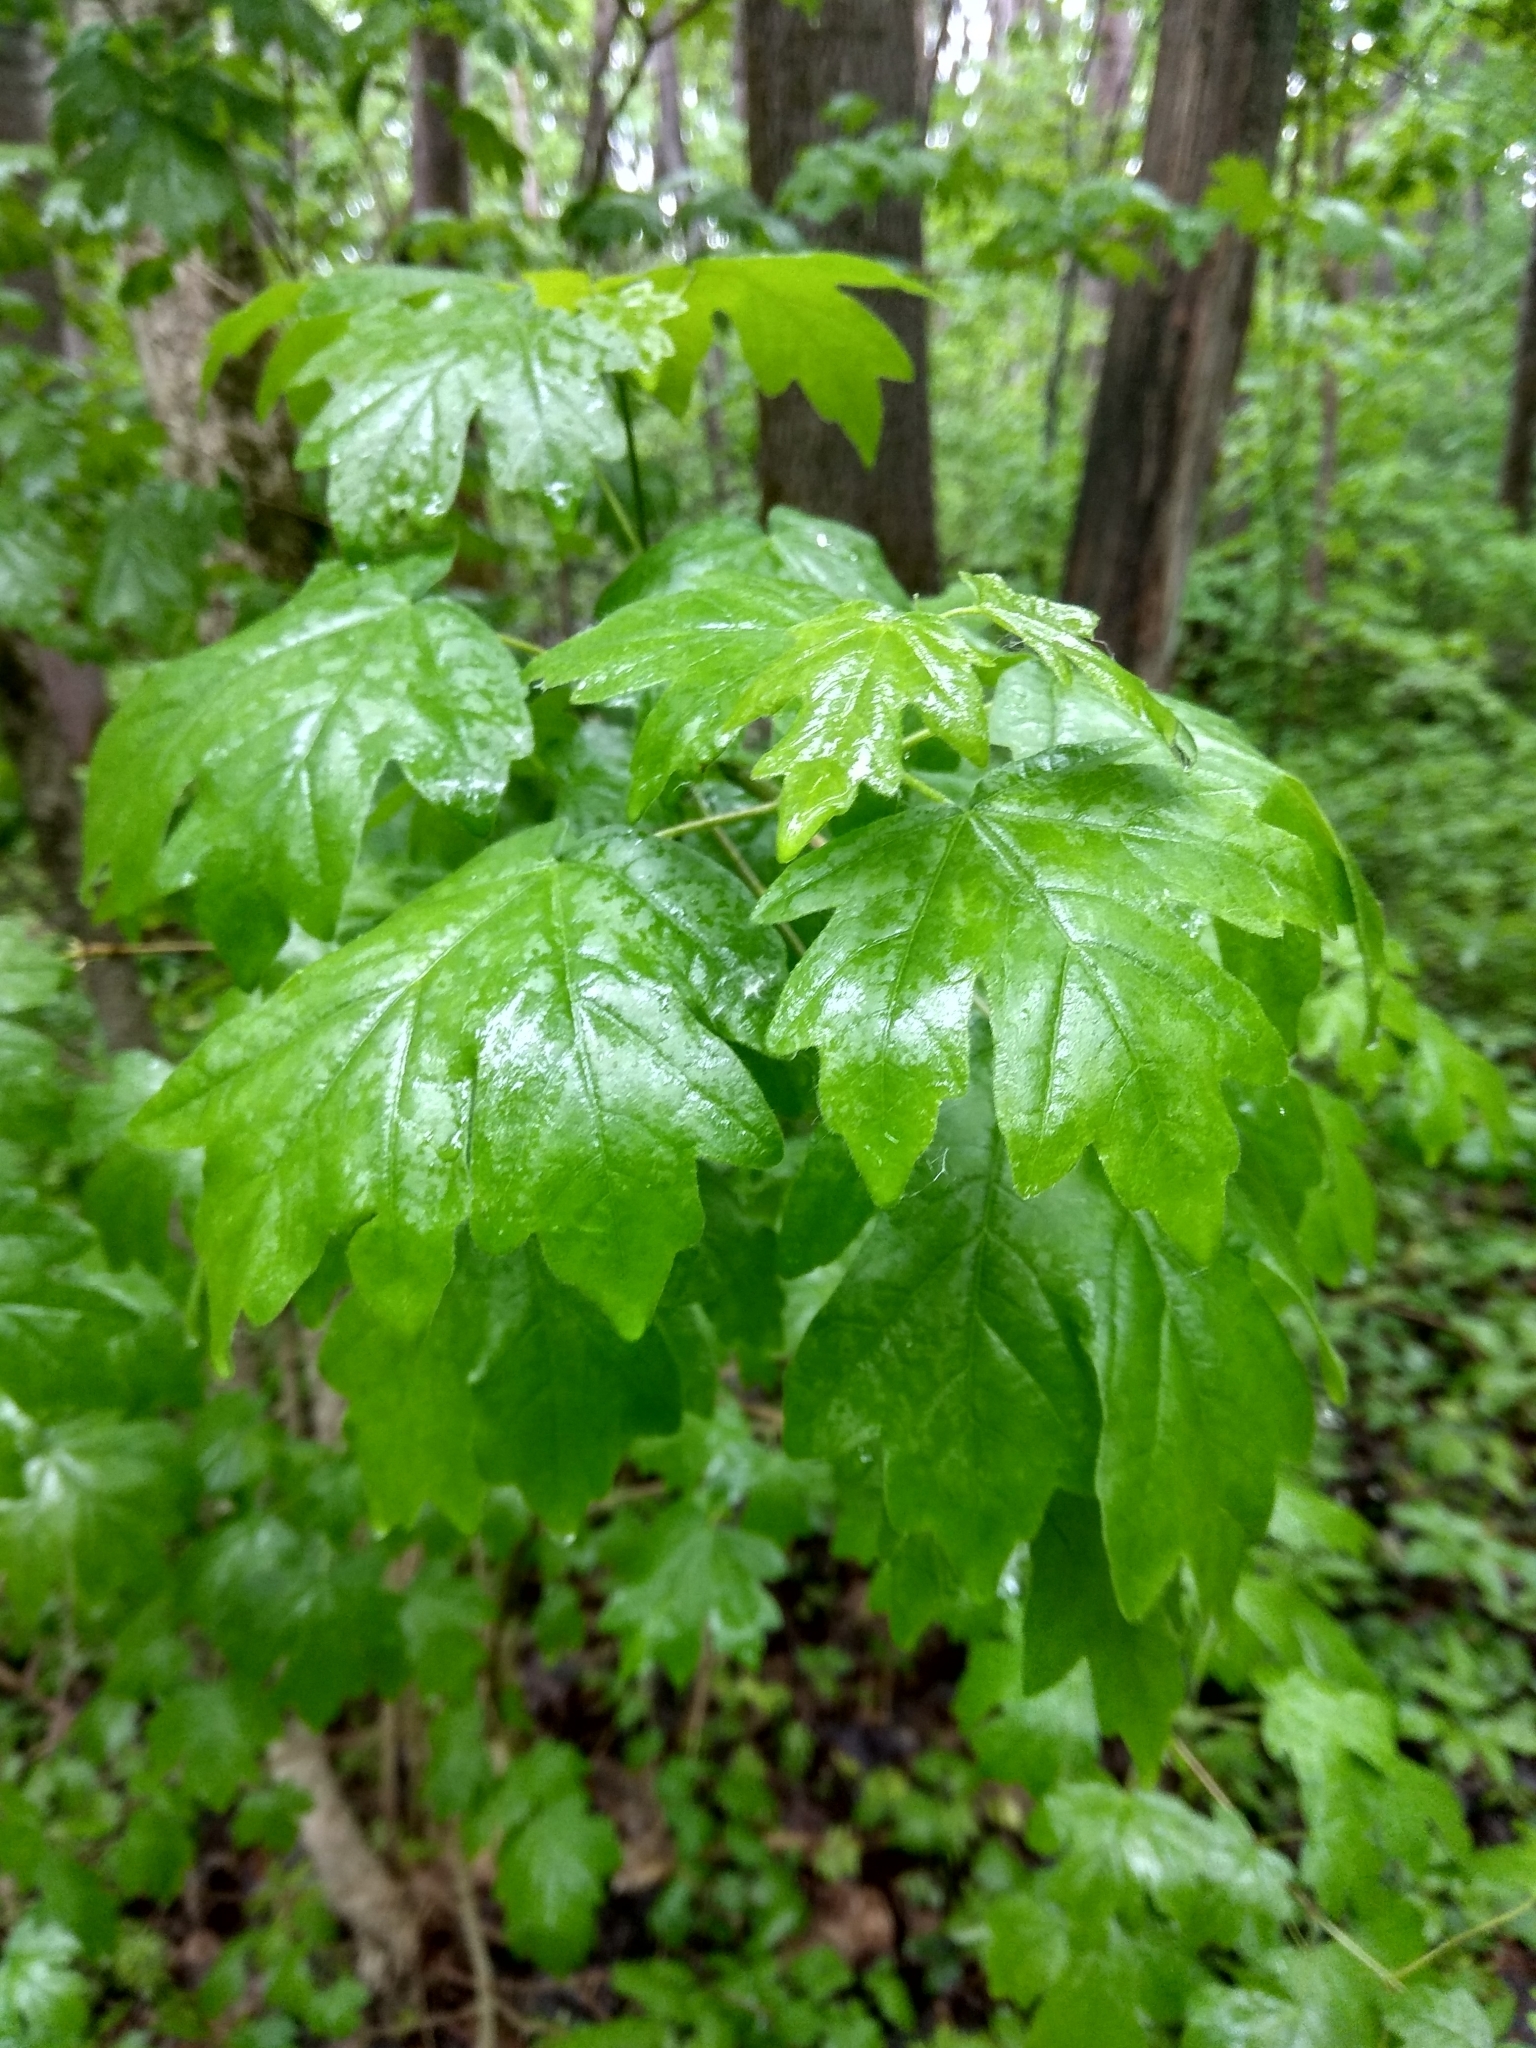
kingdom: Plantae
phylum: Tracheophyta
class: Magnoliopsida
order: Sapindales
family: Sapindaceae
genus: Acer
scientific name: Acer campestre
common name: Field maple
